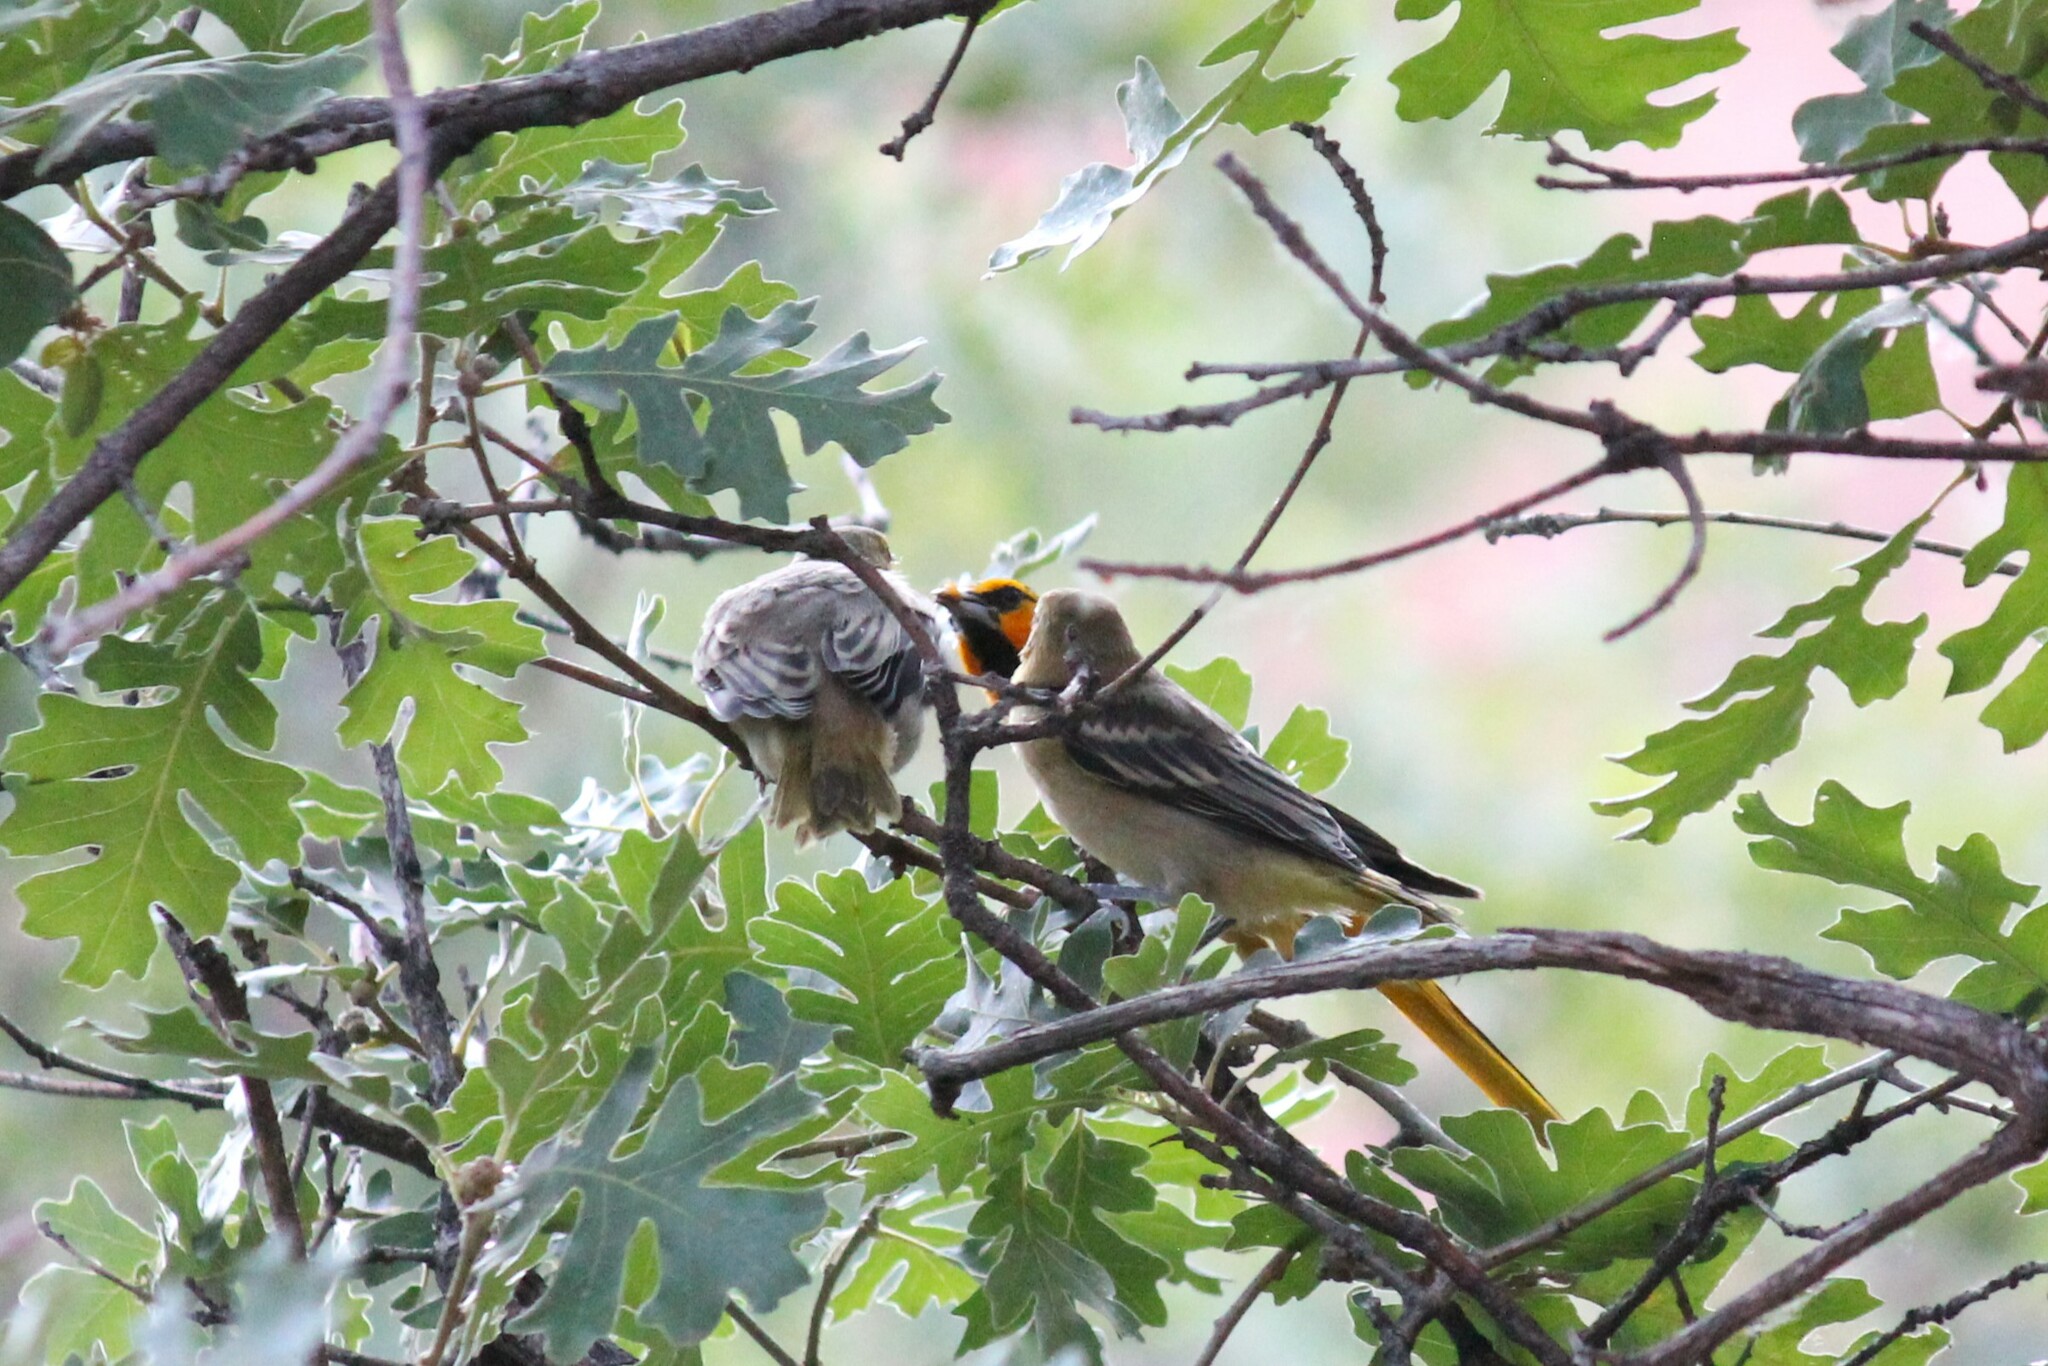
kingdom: Animalia
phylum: Chordata
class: Aves
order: Passeriformes
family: Icteridae
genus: Icterus
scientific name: Icterus bullockii
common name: Bullock's oriole
